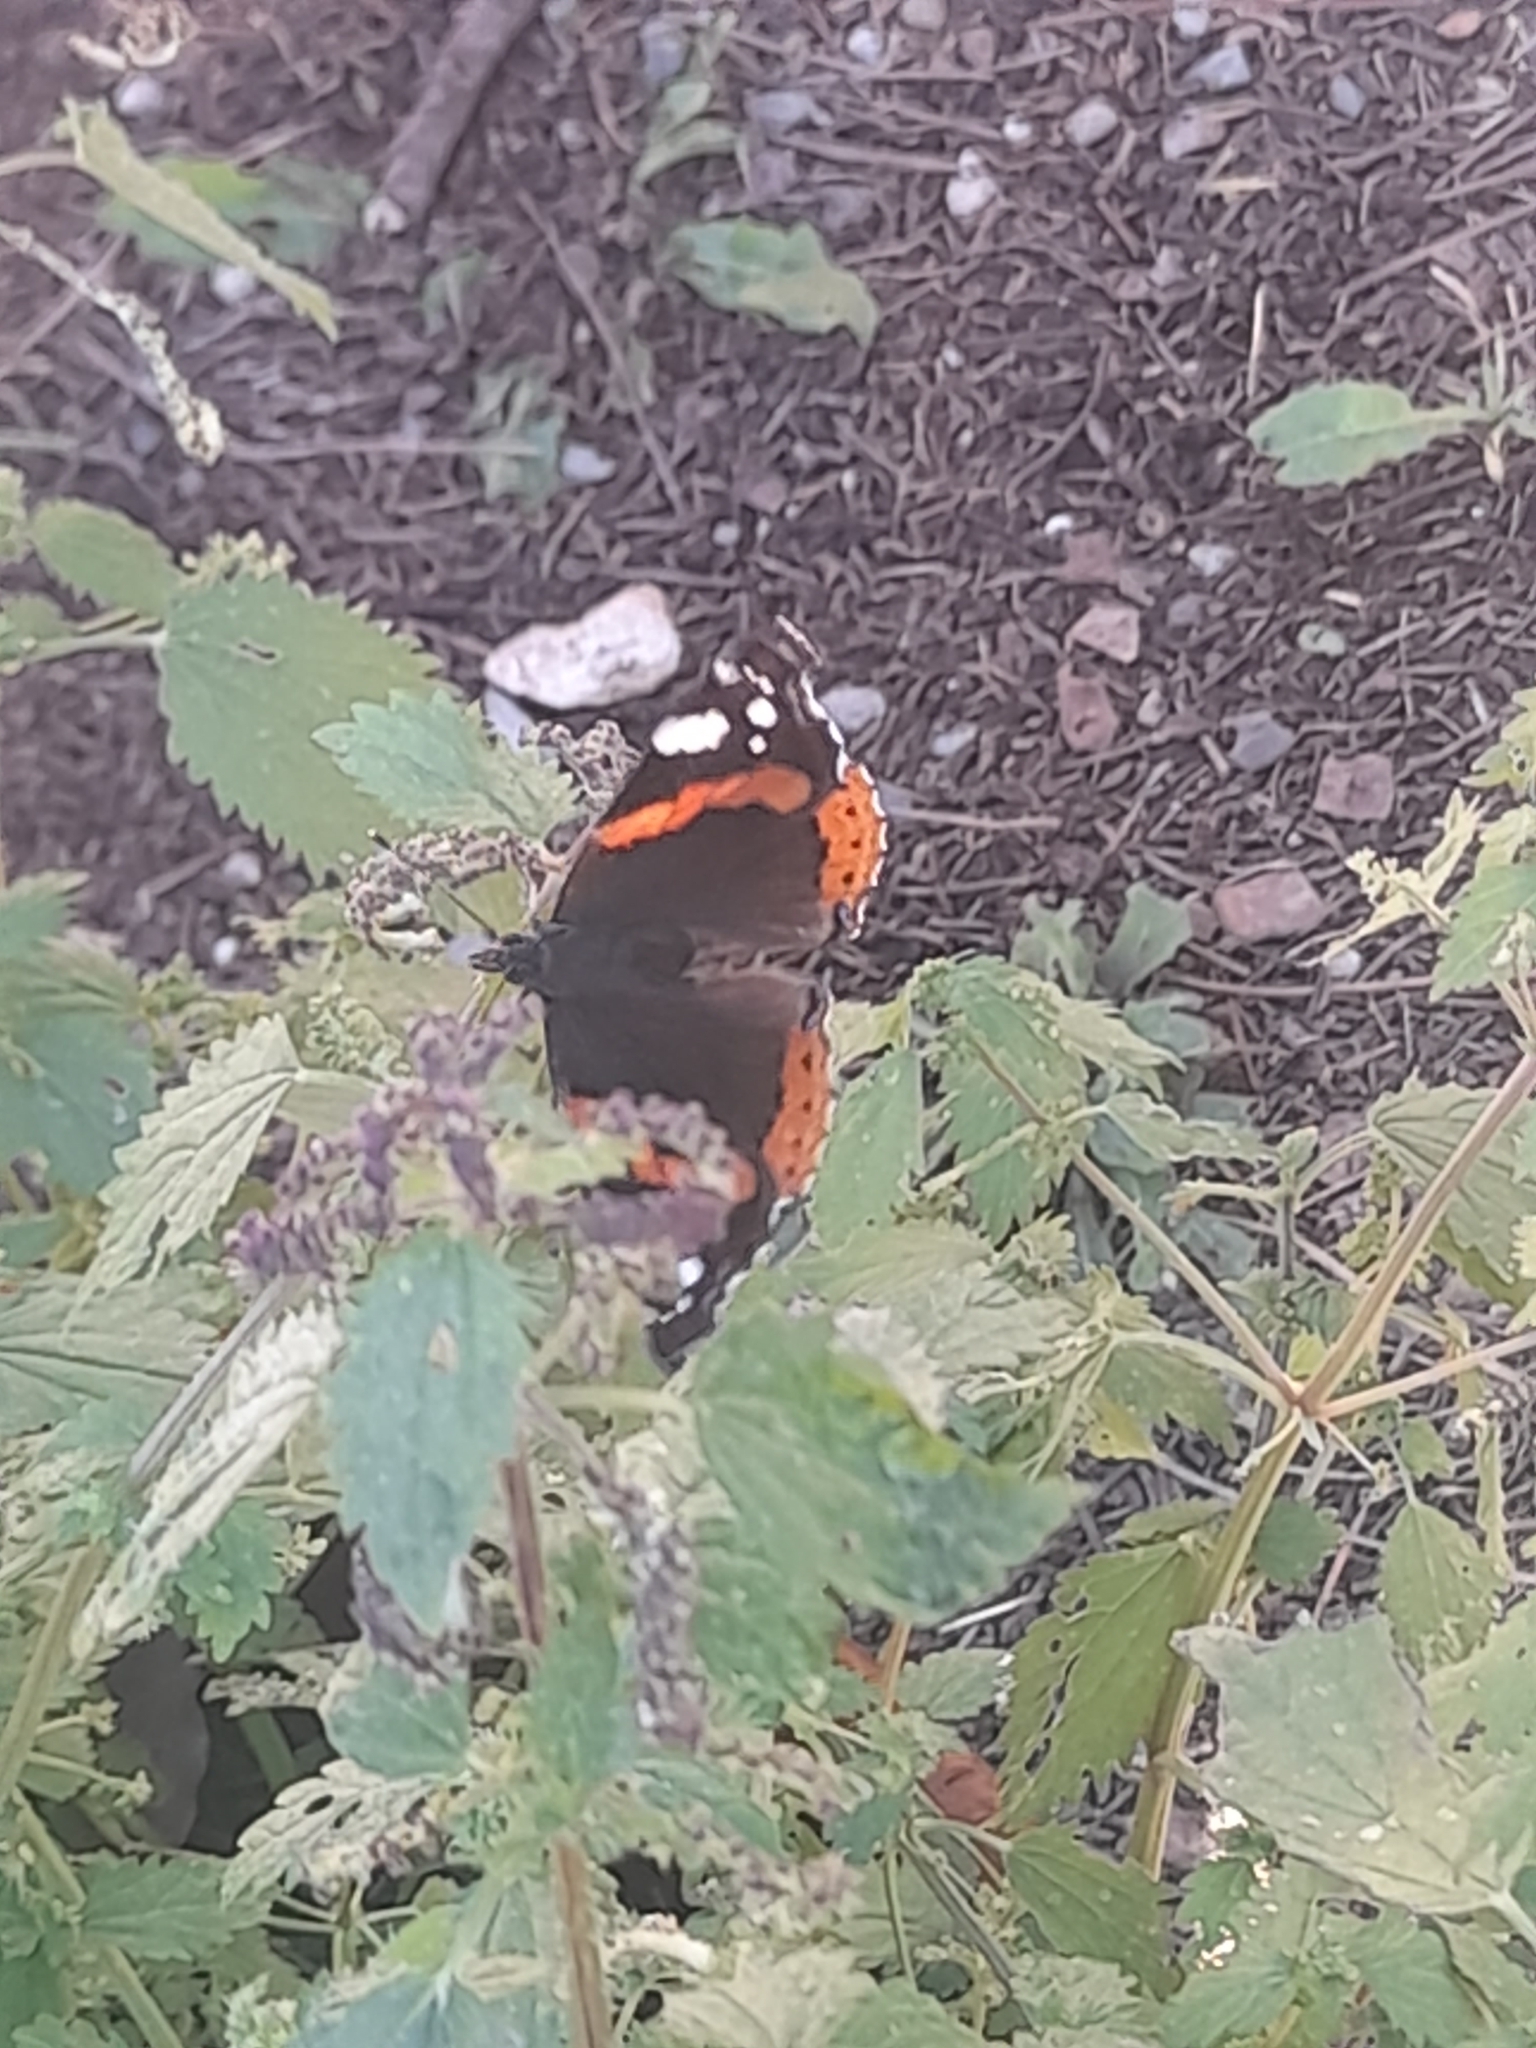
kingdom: Animalia
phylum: Arthropoda
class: Insecta
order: Lepidoptera
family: Nymphalidae
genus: Vanessa
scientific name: Vanessa atalanta
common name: Red admiral
